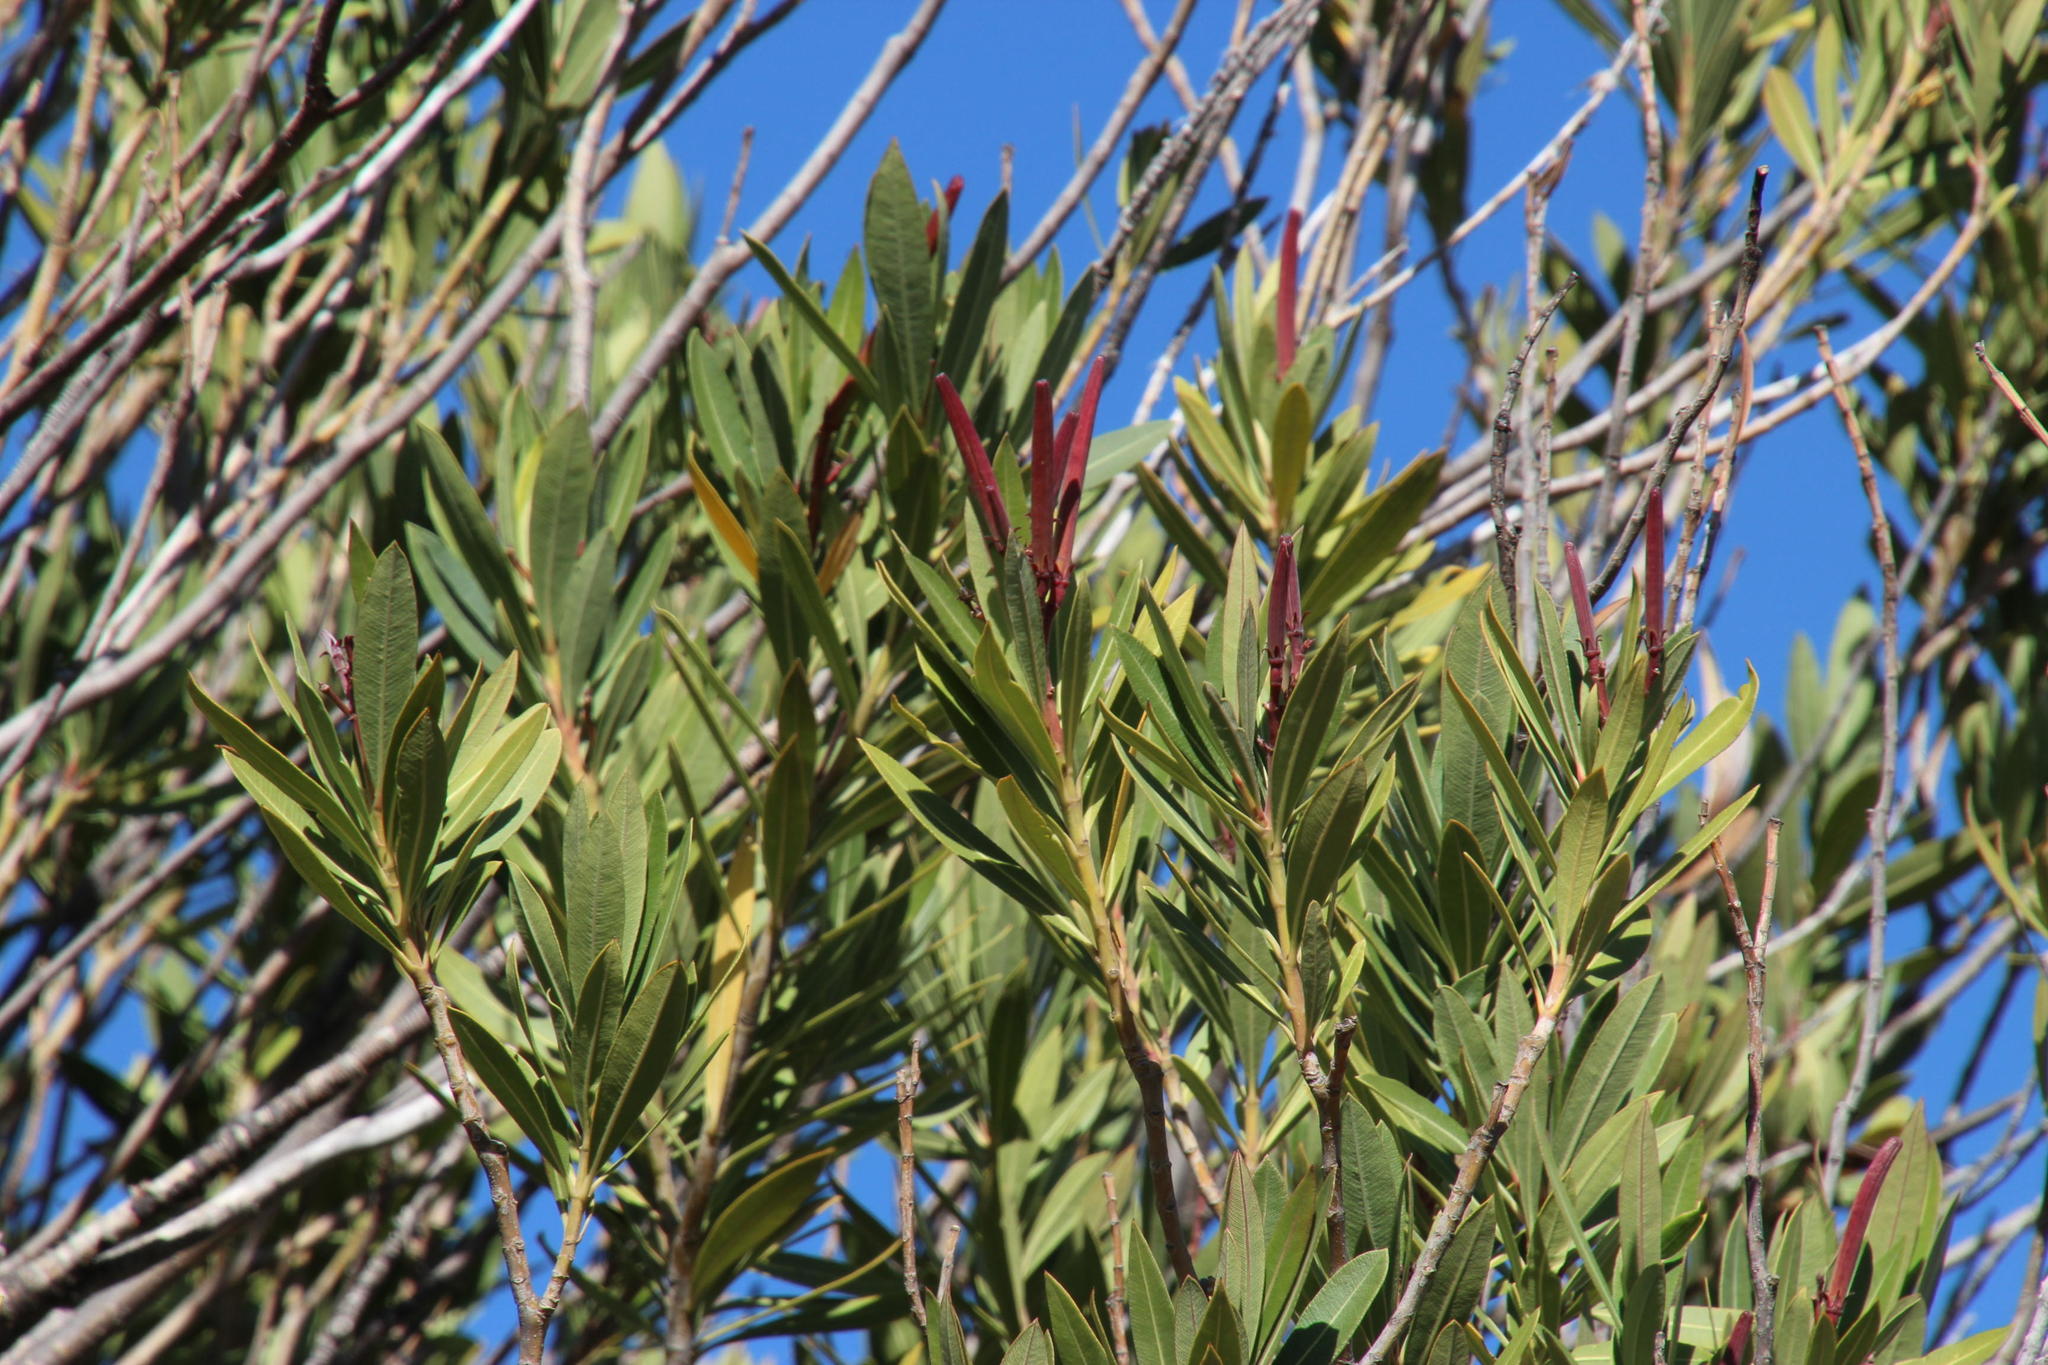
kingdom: Plantae
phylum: Tracheophyta
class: Magnoliopsida
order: Gentianales
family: Apocynaceae
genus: Nerium
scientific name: Nerium oleander
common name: Oleander
